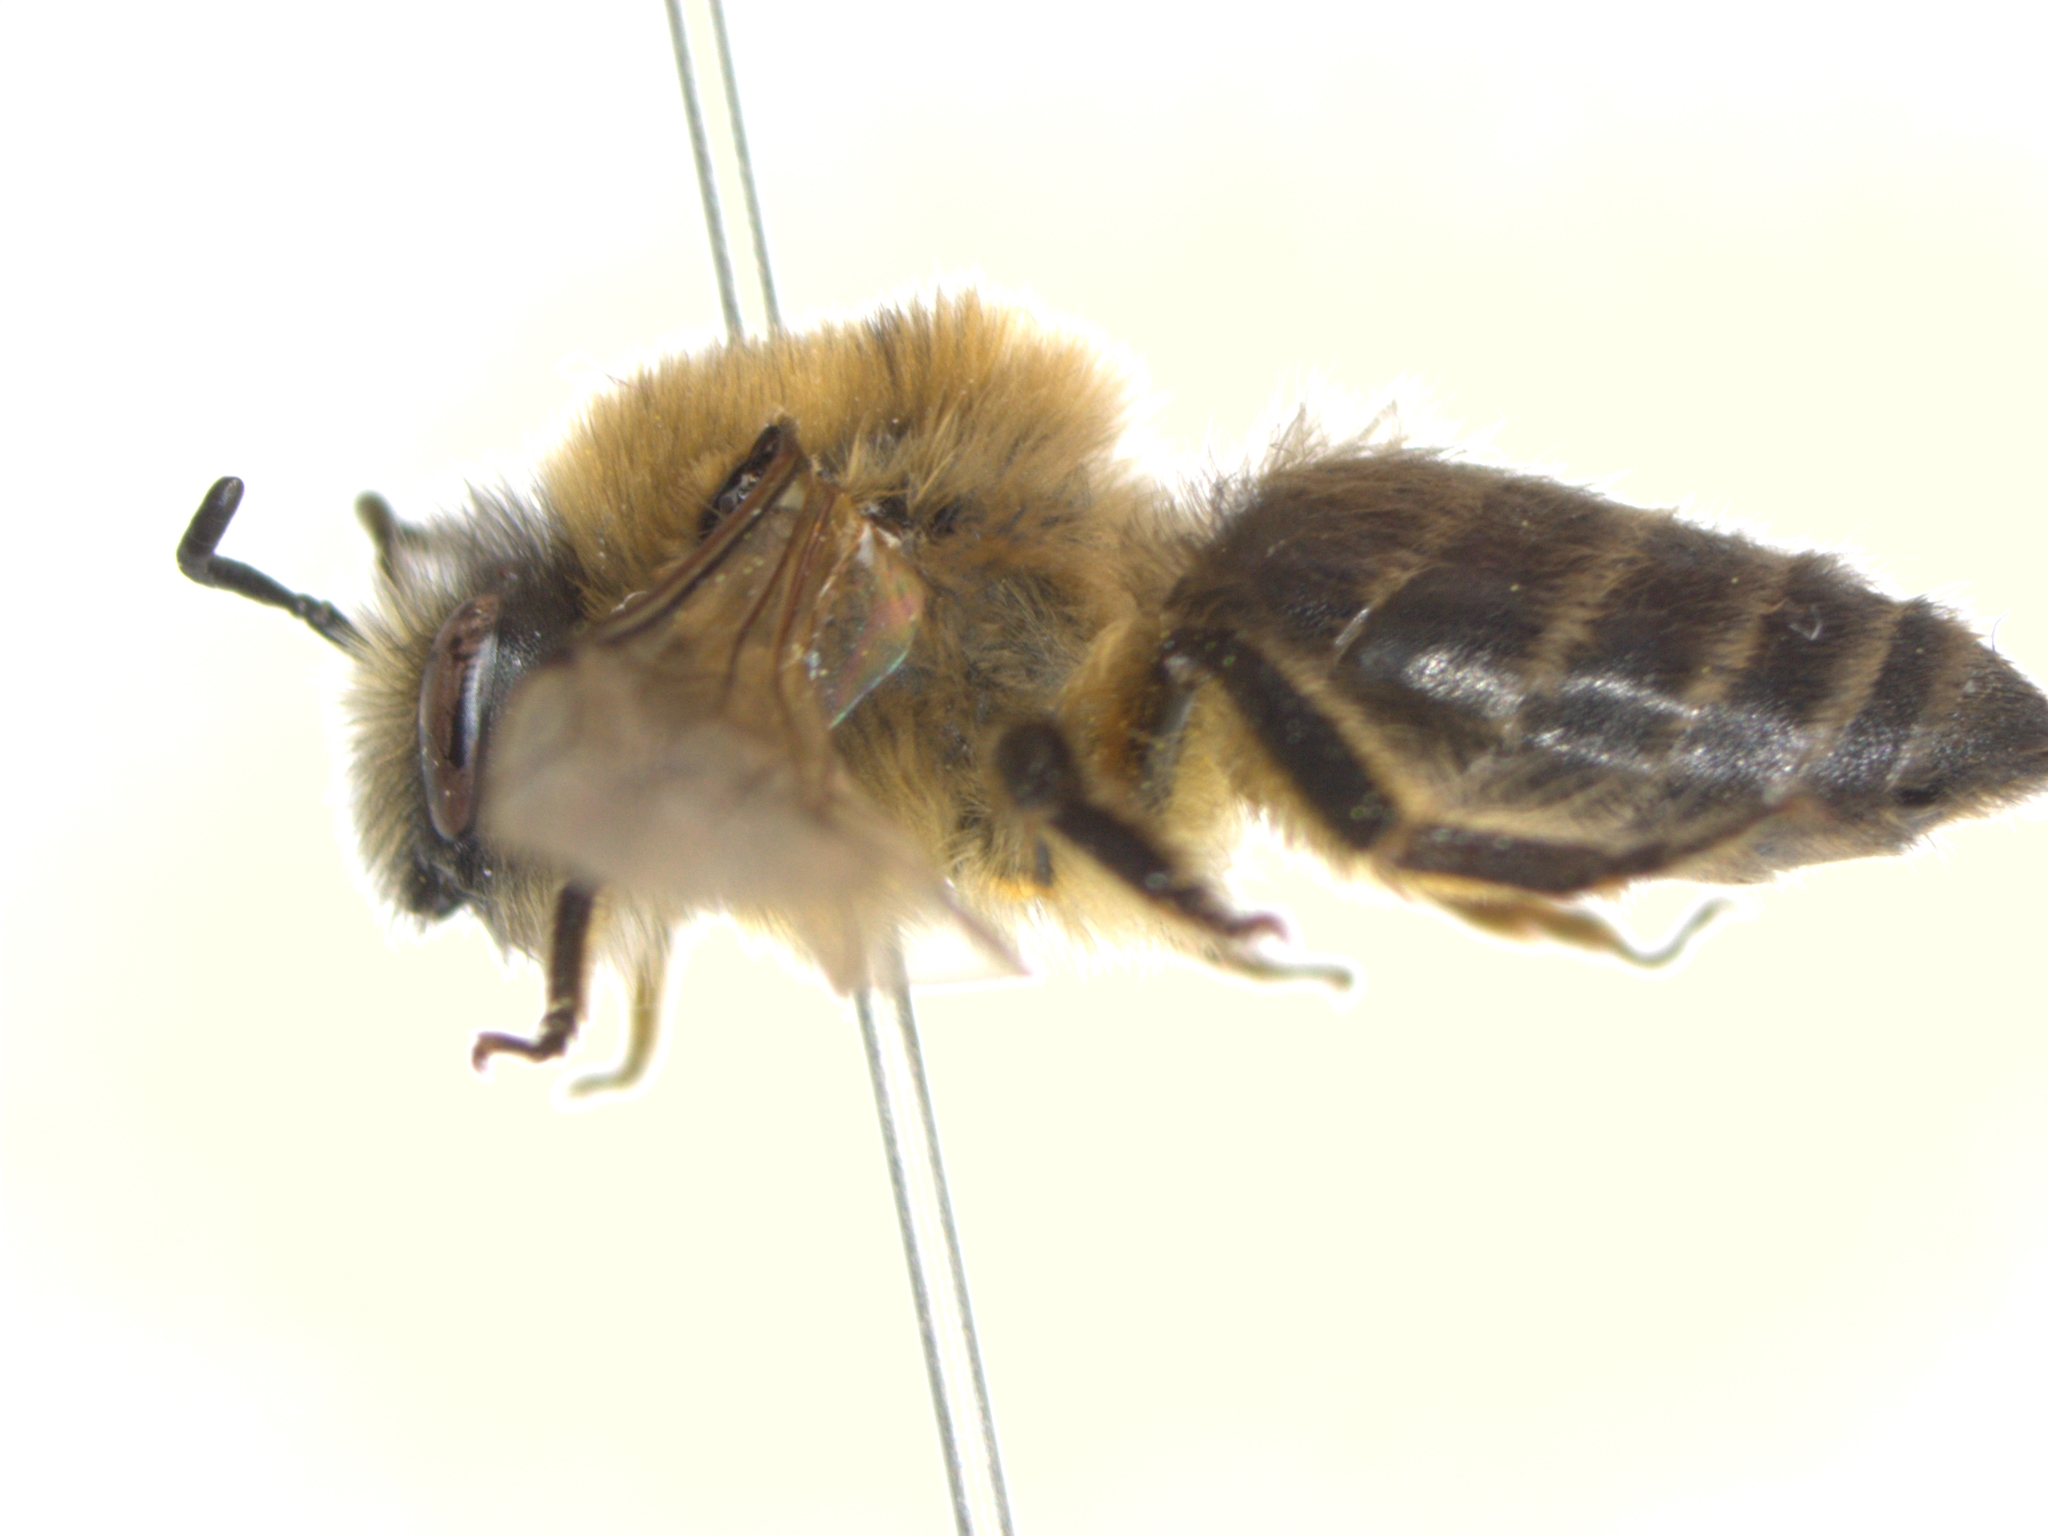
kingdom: Animalia
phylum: Arthropoda
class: Insecta
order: Hymenoptera
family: Colletidae
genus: Colletes
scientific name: Colletes cunicularius
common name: Early colletes
